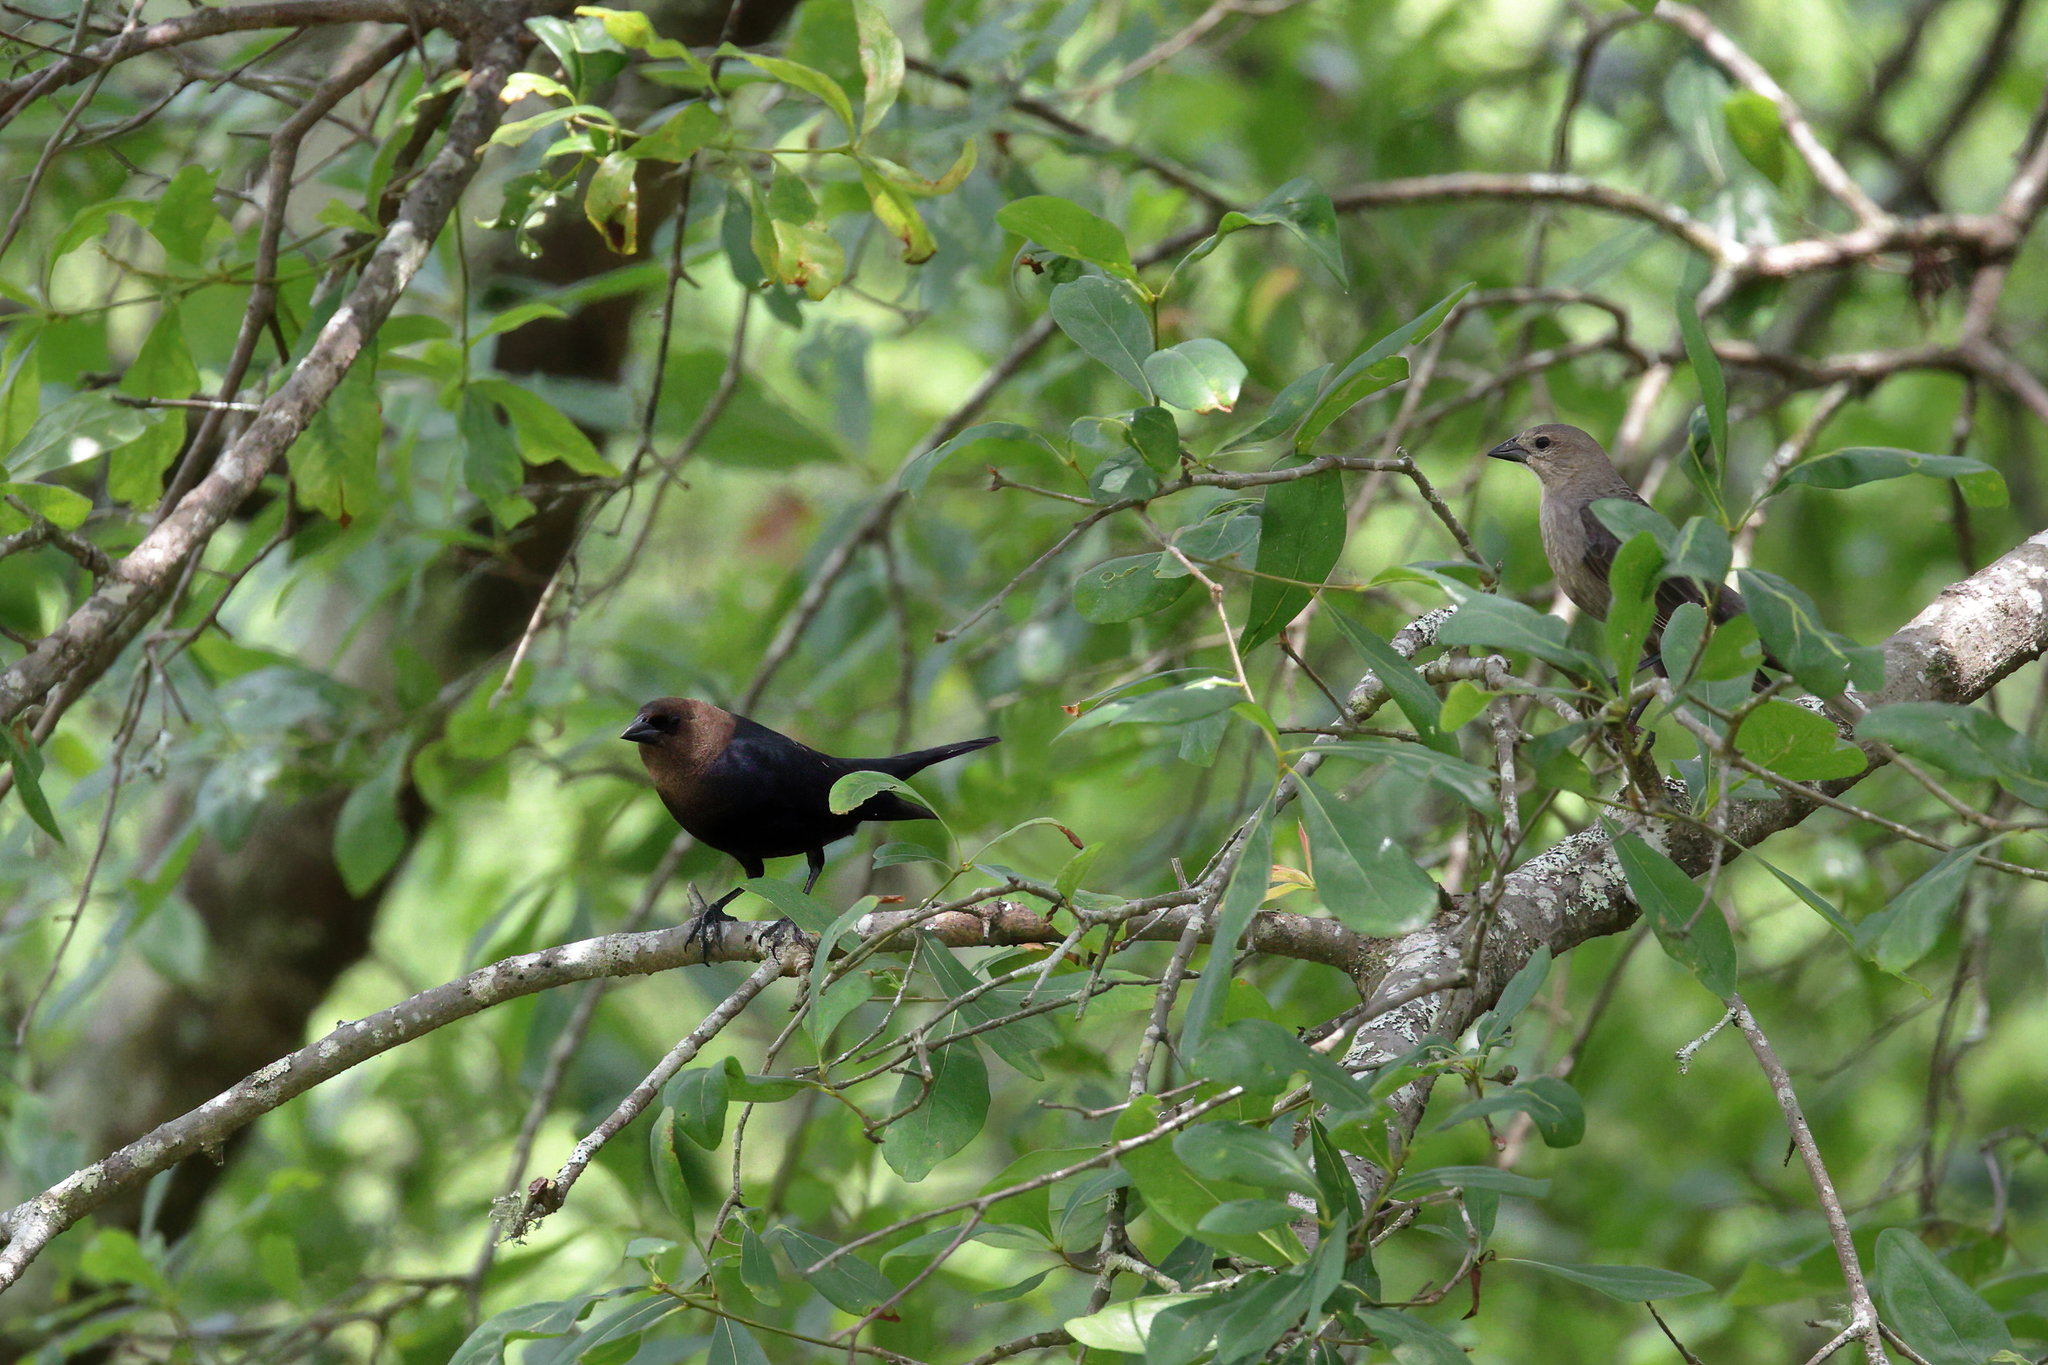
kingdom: Animalia
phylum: Chordata
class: Aves
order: Passeriformes
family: Icteridae
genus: Molothrus
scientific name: Molothrus ater
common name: Brown-headed cowbird
